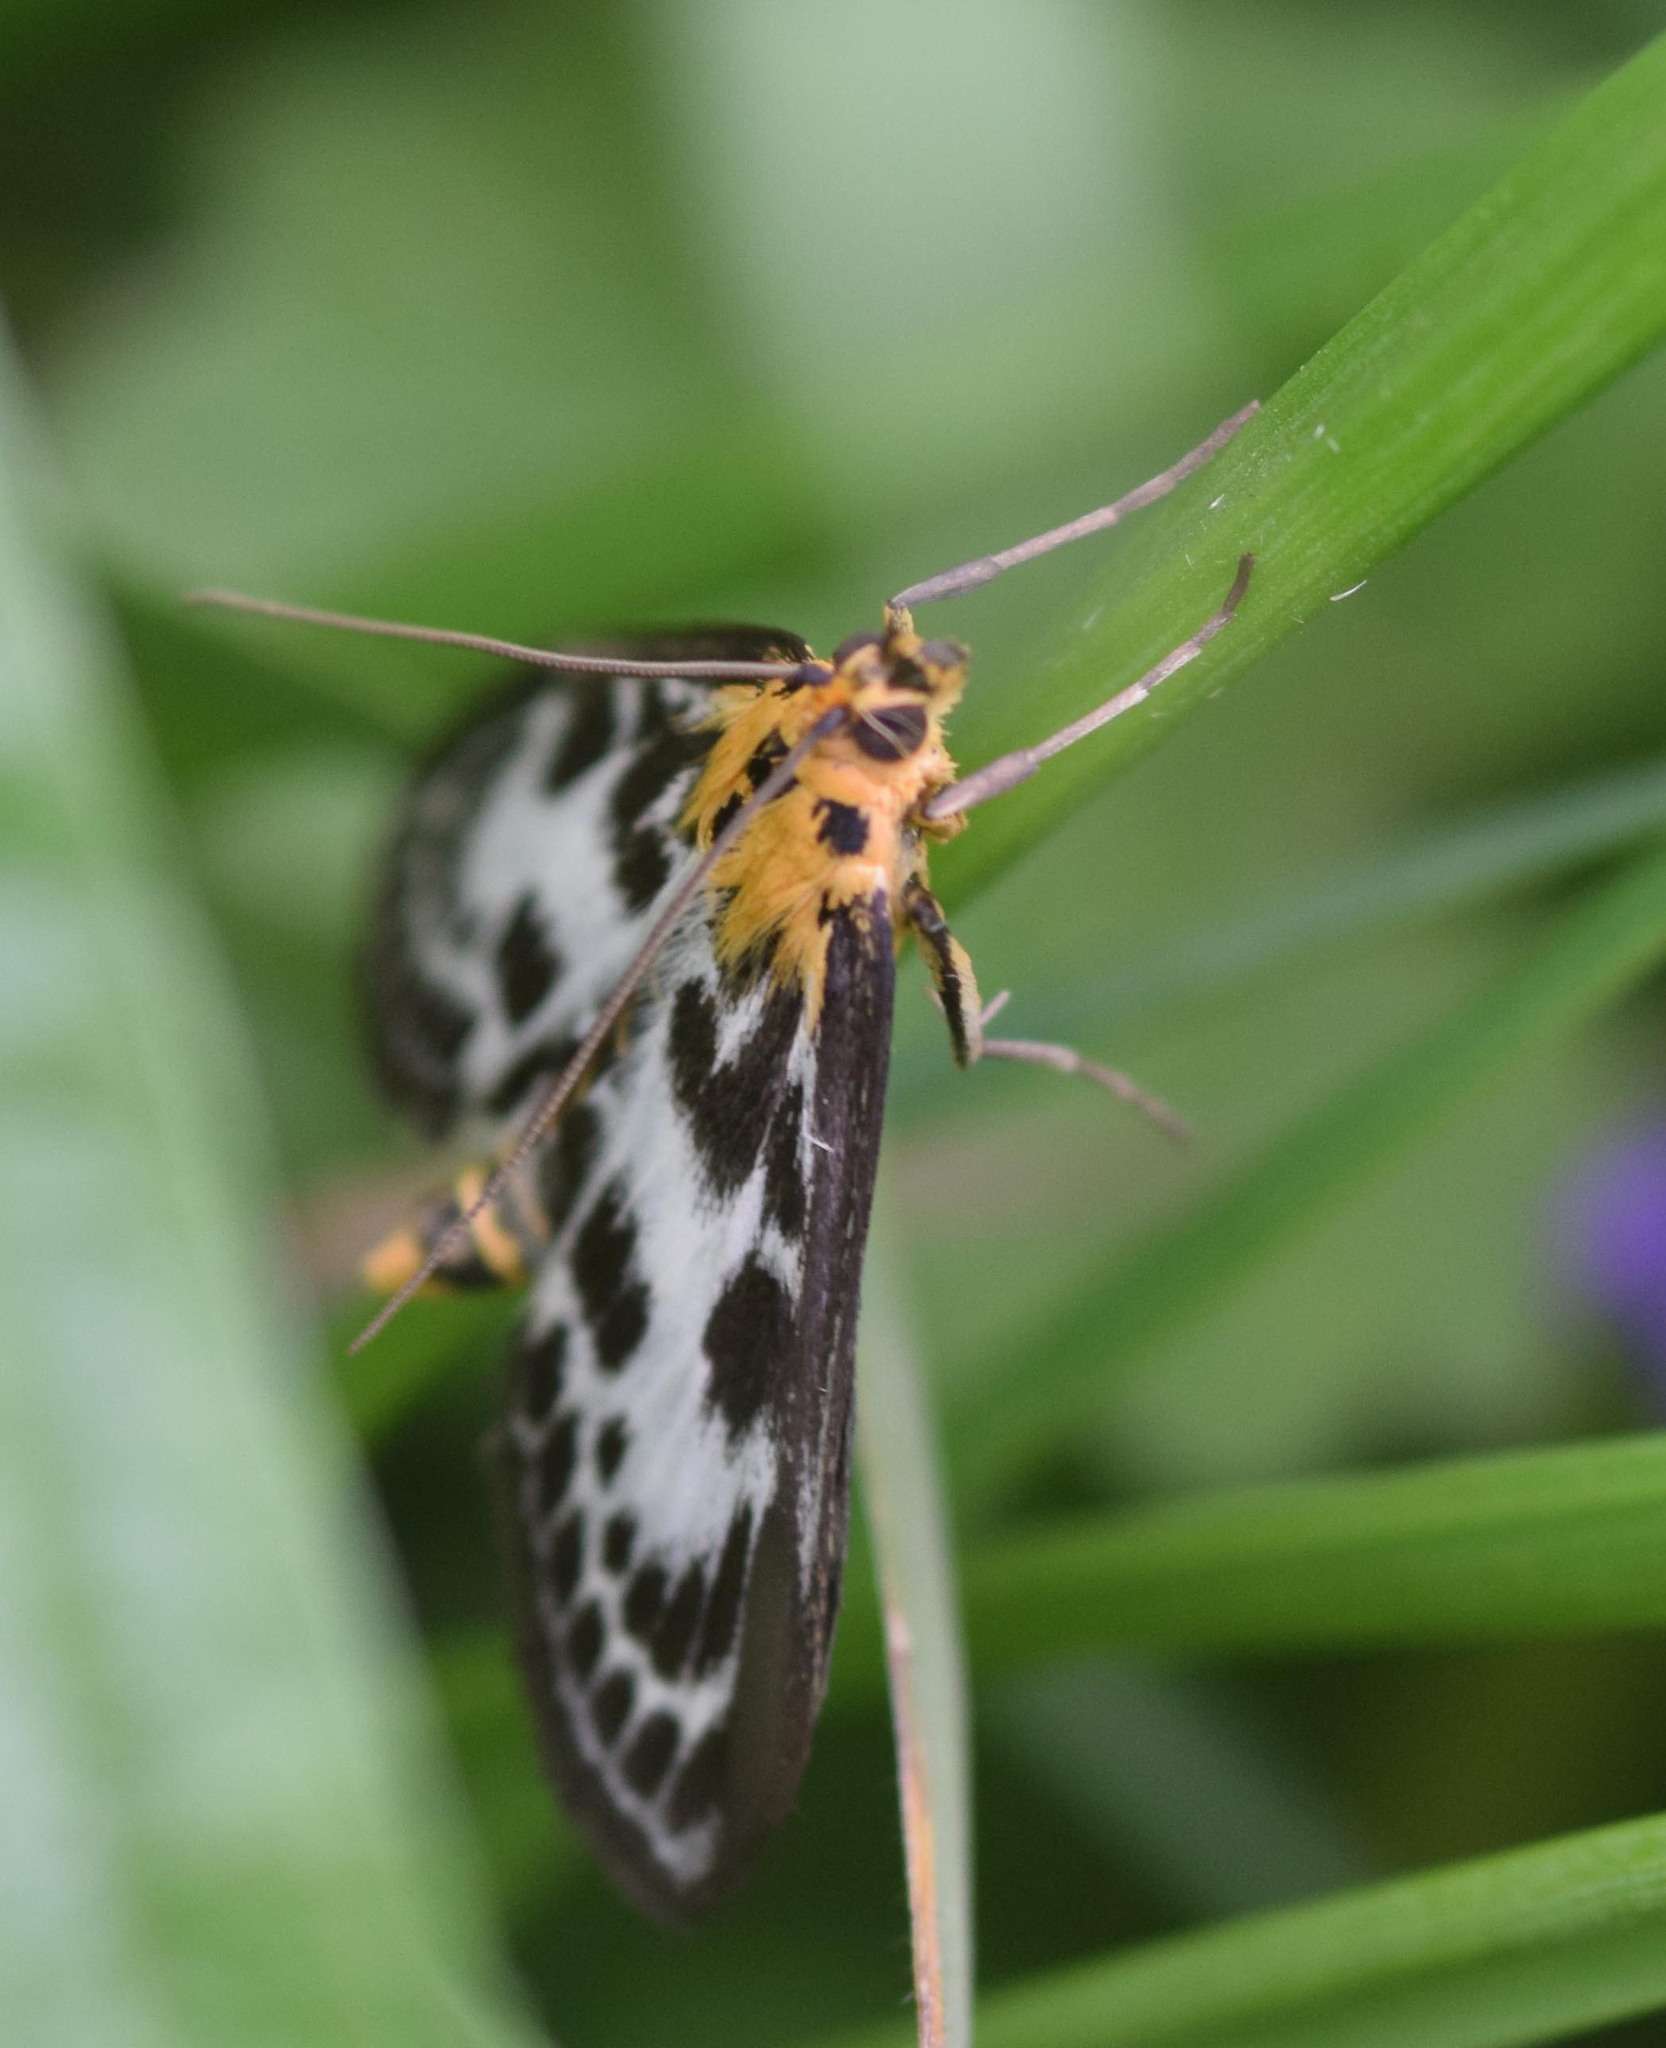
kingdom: Animalia
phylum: Arthropoda
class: Insecta
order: Lepidoptera
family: Crambidae
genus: Anania
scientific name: Anania hortulata
